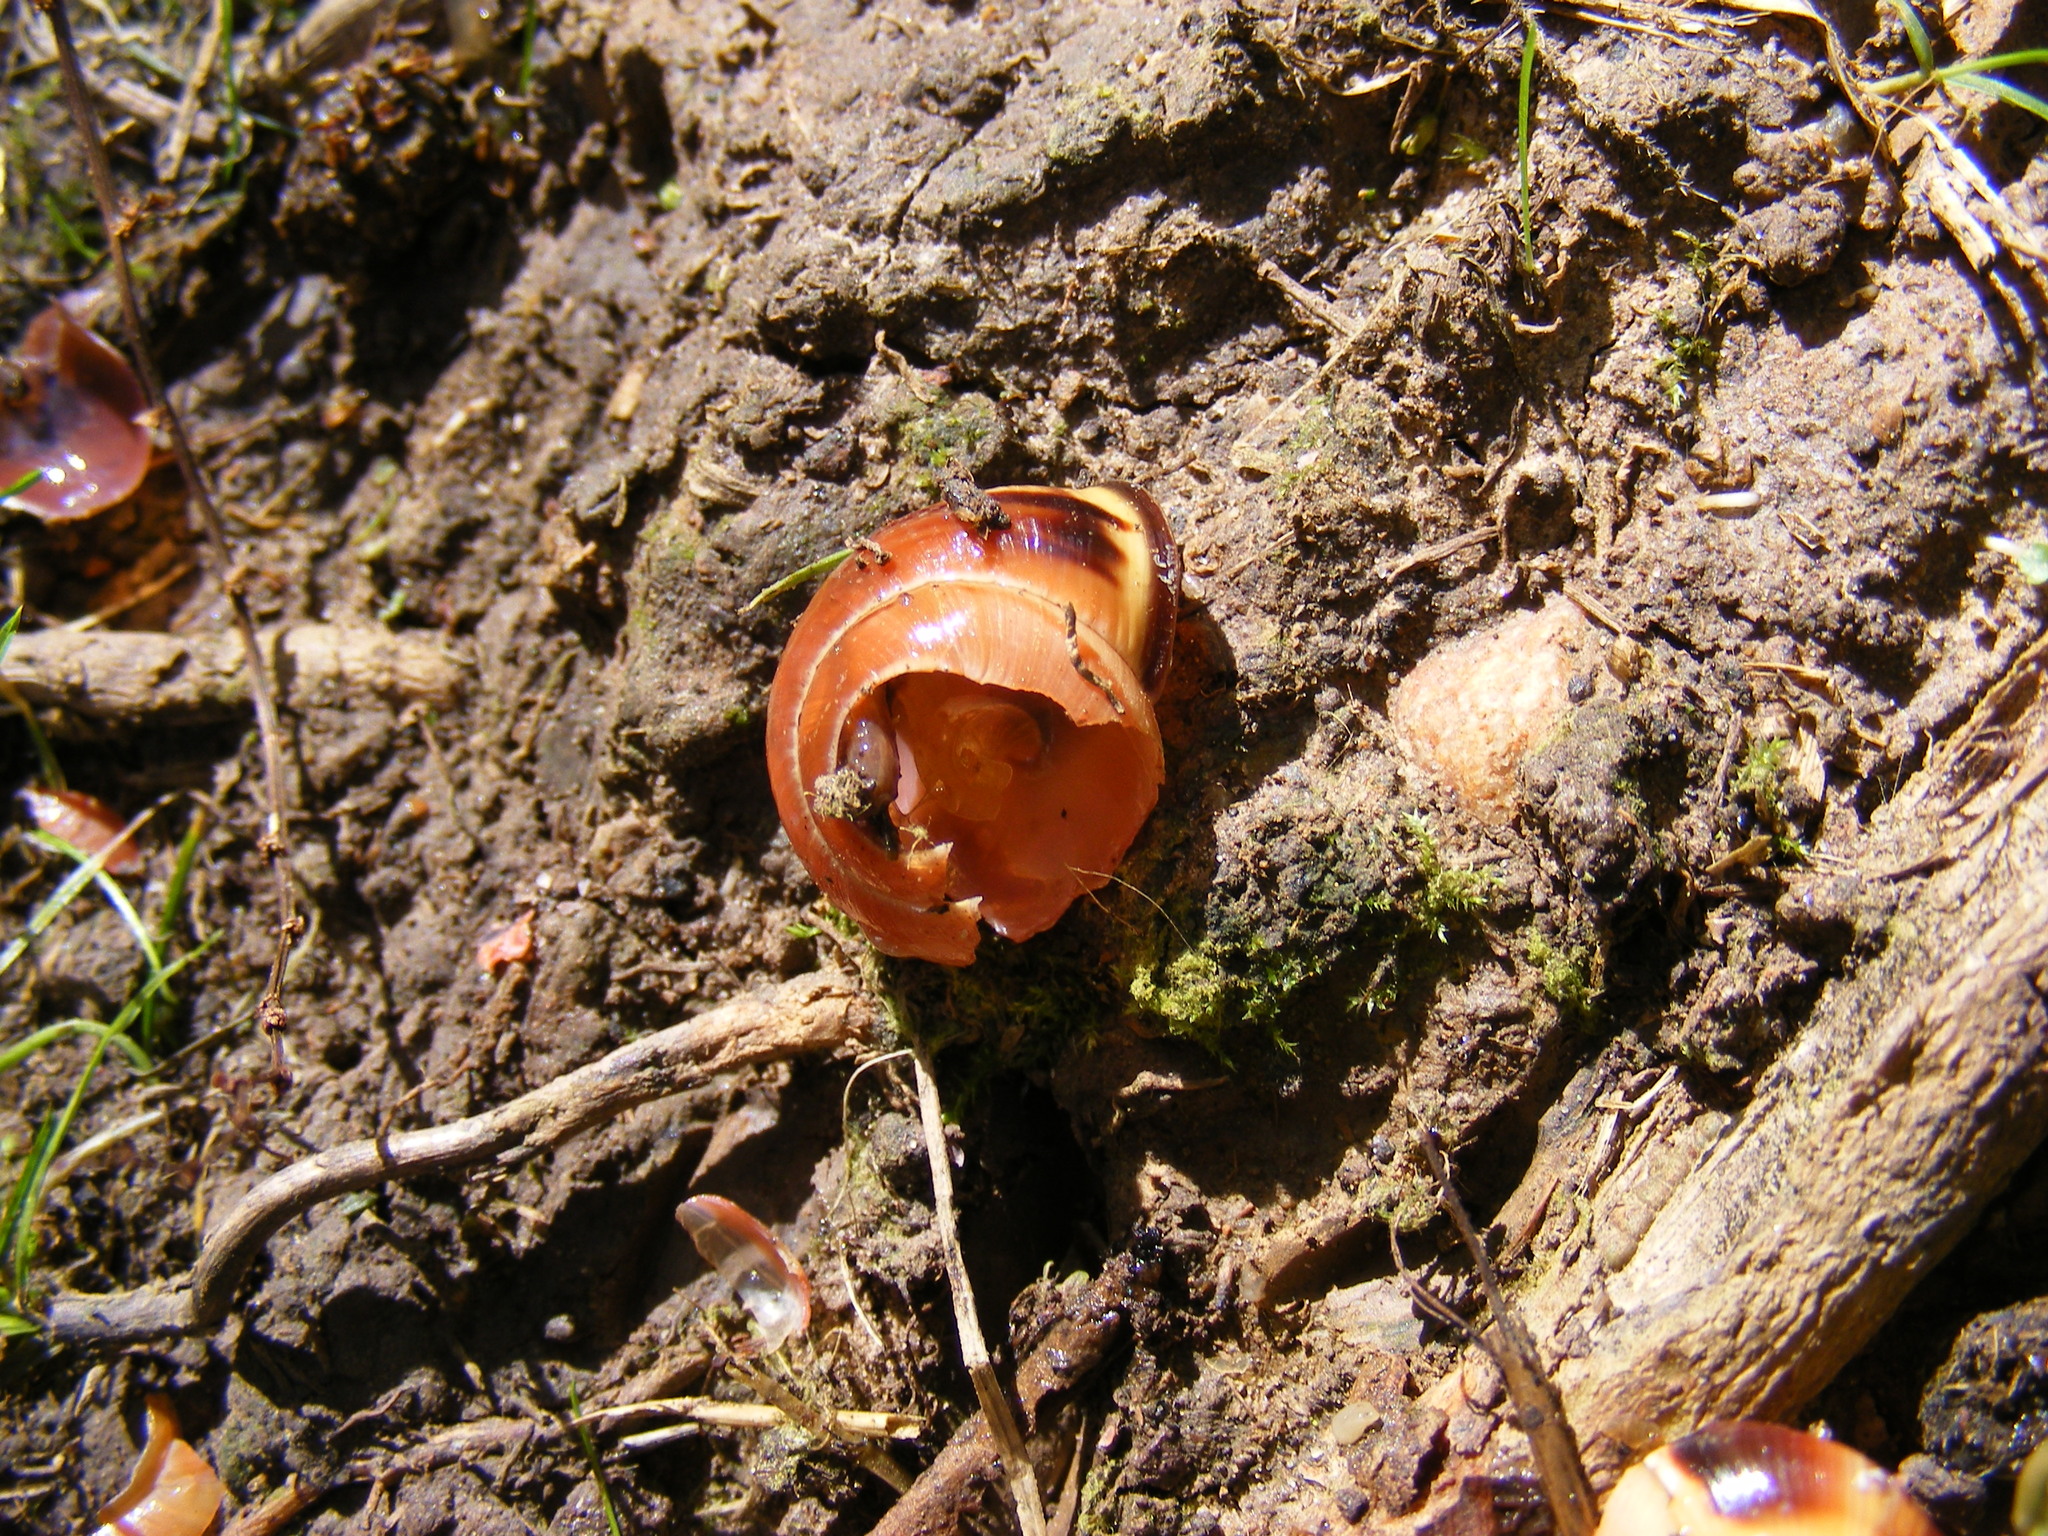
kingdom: Animalia
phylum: Chordata
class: Aves
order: Passeriformes
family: Turdidae
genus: Turdus
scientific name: Turdus philomelos
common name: Song thrush
